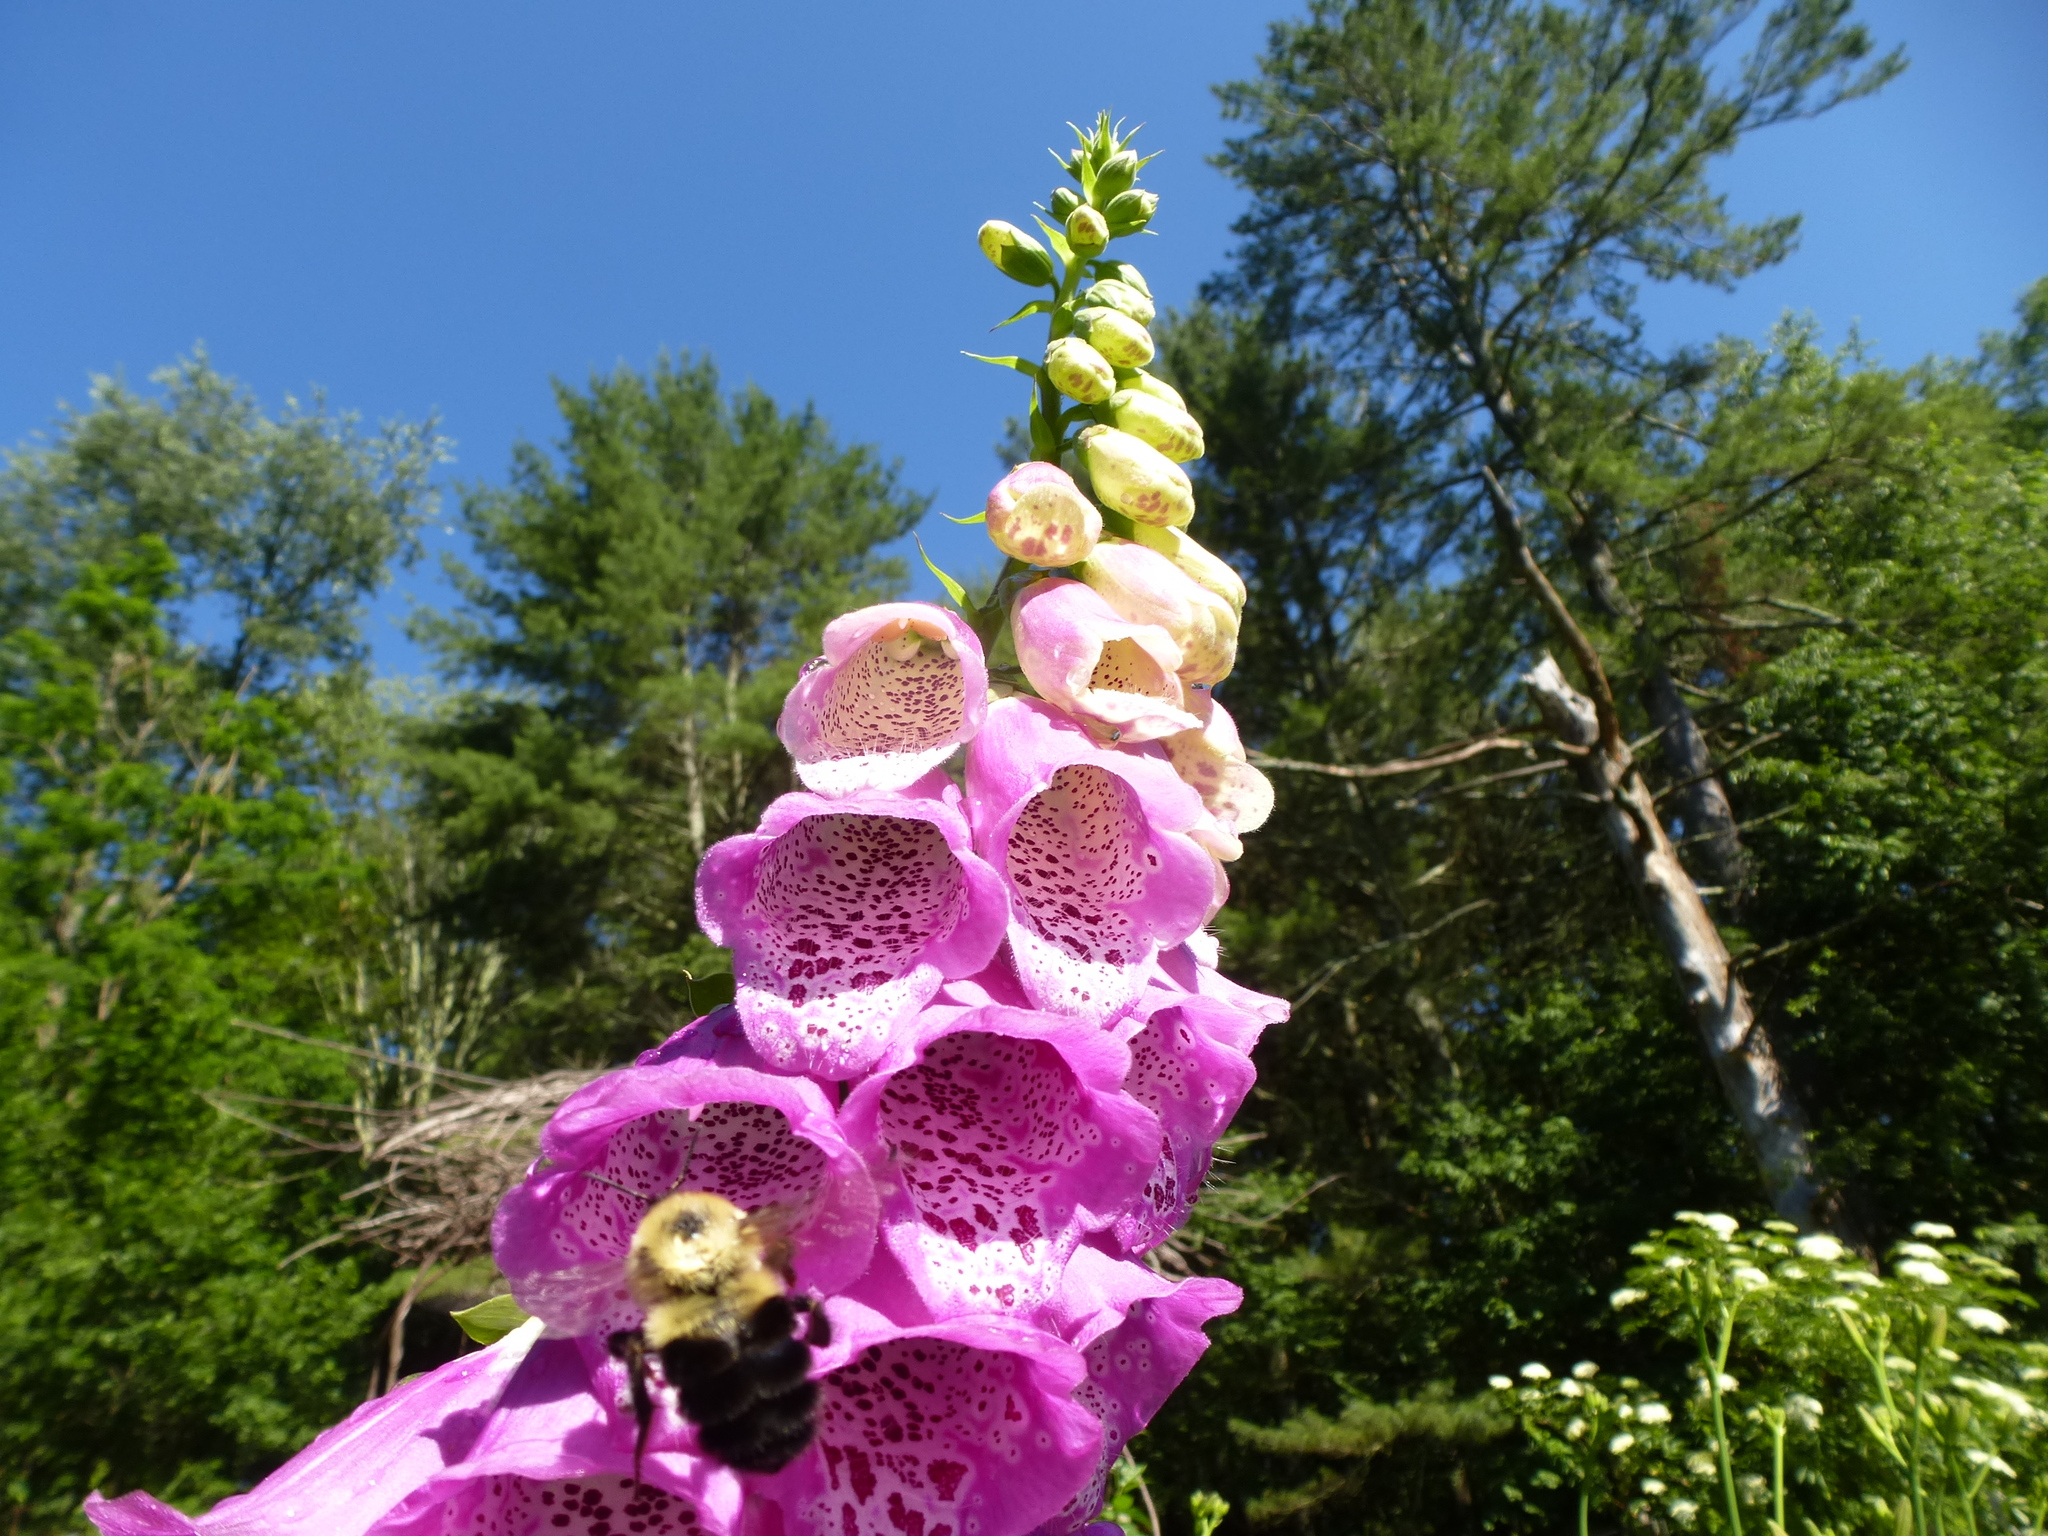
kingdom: Animalia
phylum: Arthropoda
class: Insecta
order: Hymenoptera
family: Apidae
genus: Bombus
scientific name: Bombus bimaculatus
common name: Two-spotted bumble bee
